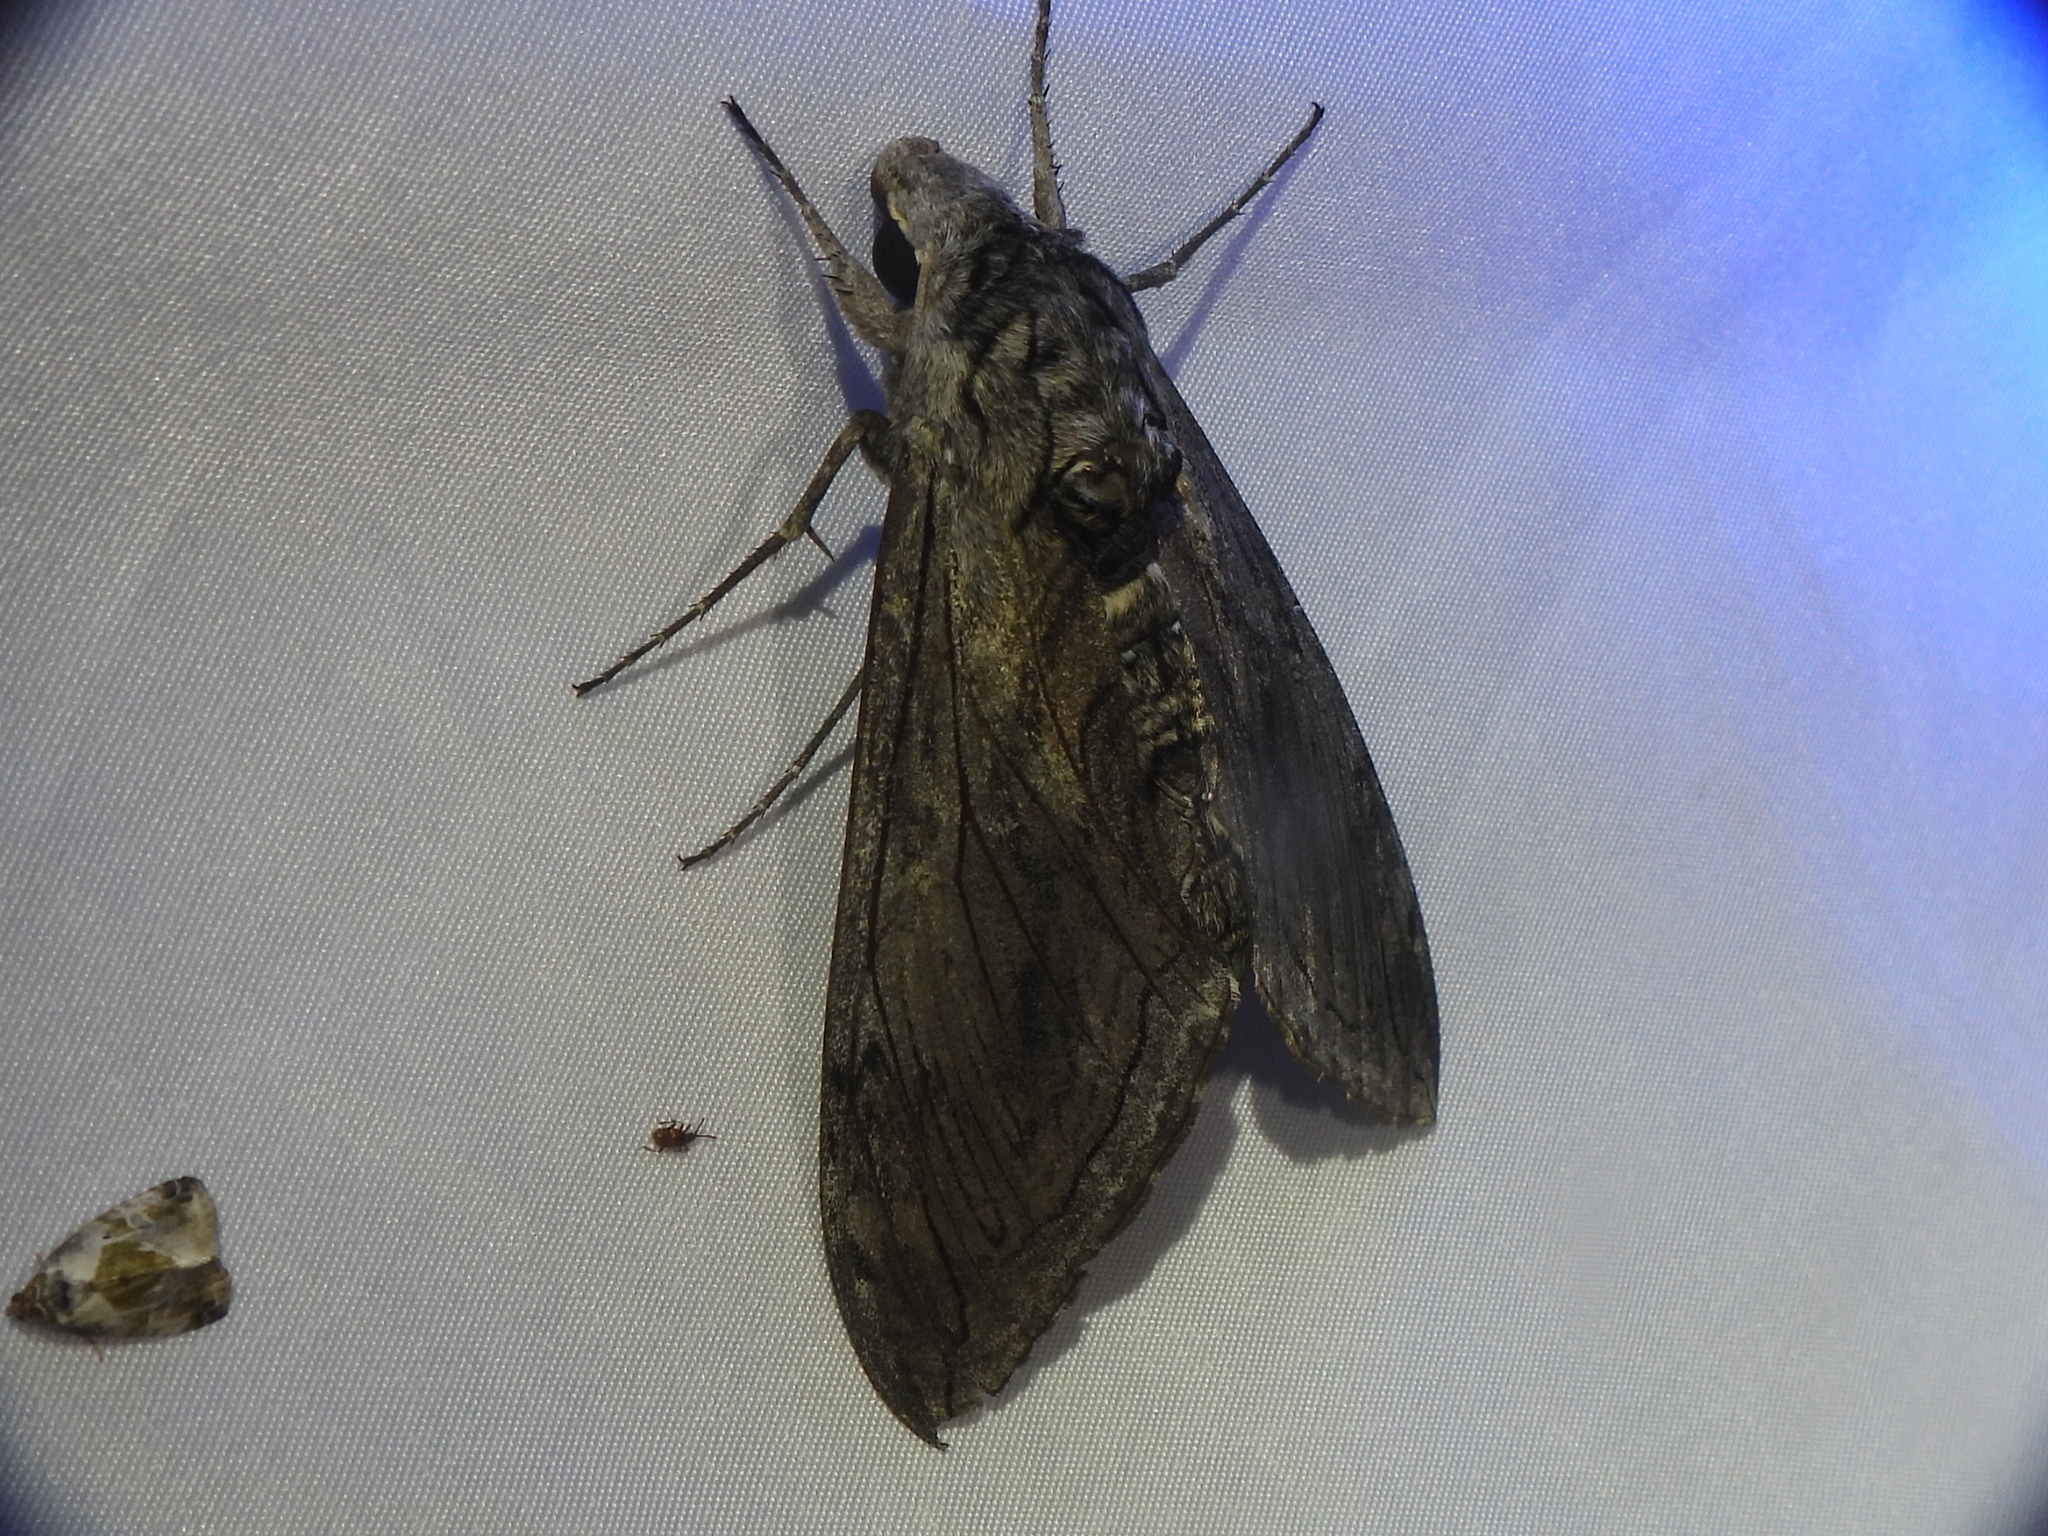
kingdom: Animalia
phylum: Arthropoda
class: Insecta
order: Lepidoptera
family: Sphingidae
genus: Manduca
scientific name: Manduca quinquemaculatus
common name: Five-spotted hawk-moth
